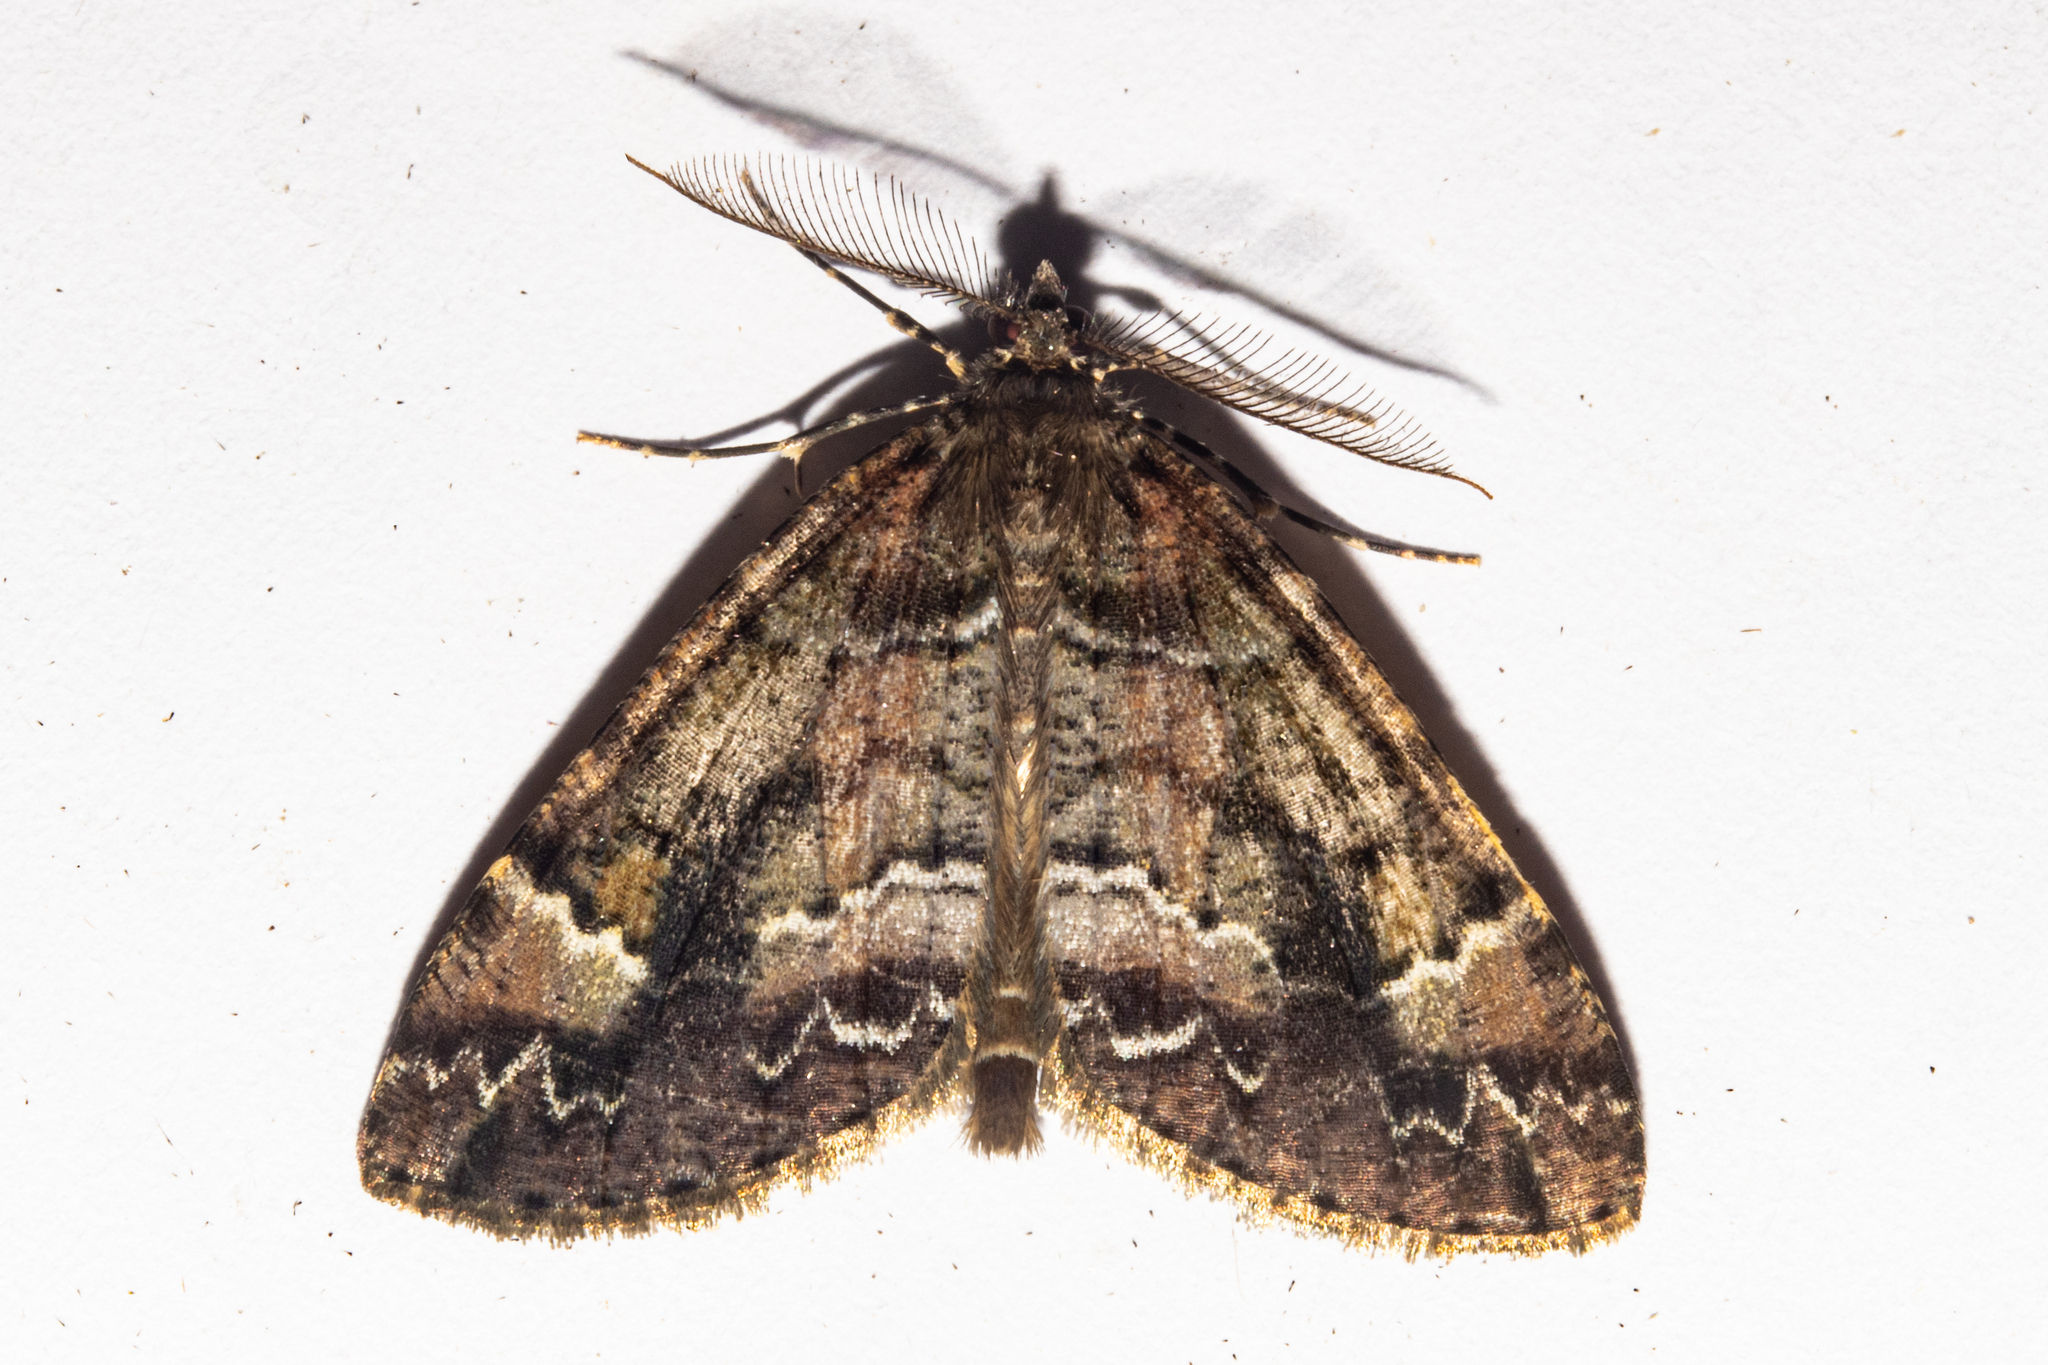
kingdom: Animalia
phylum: Arthropoda
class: Insecta
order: Lepidoptera
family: Geometridae
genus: Pseudocoremia
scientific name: Pseudocoremia productata
